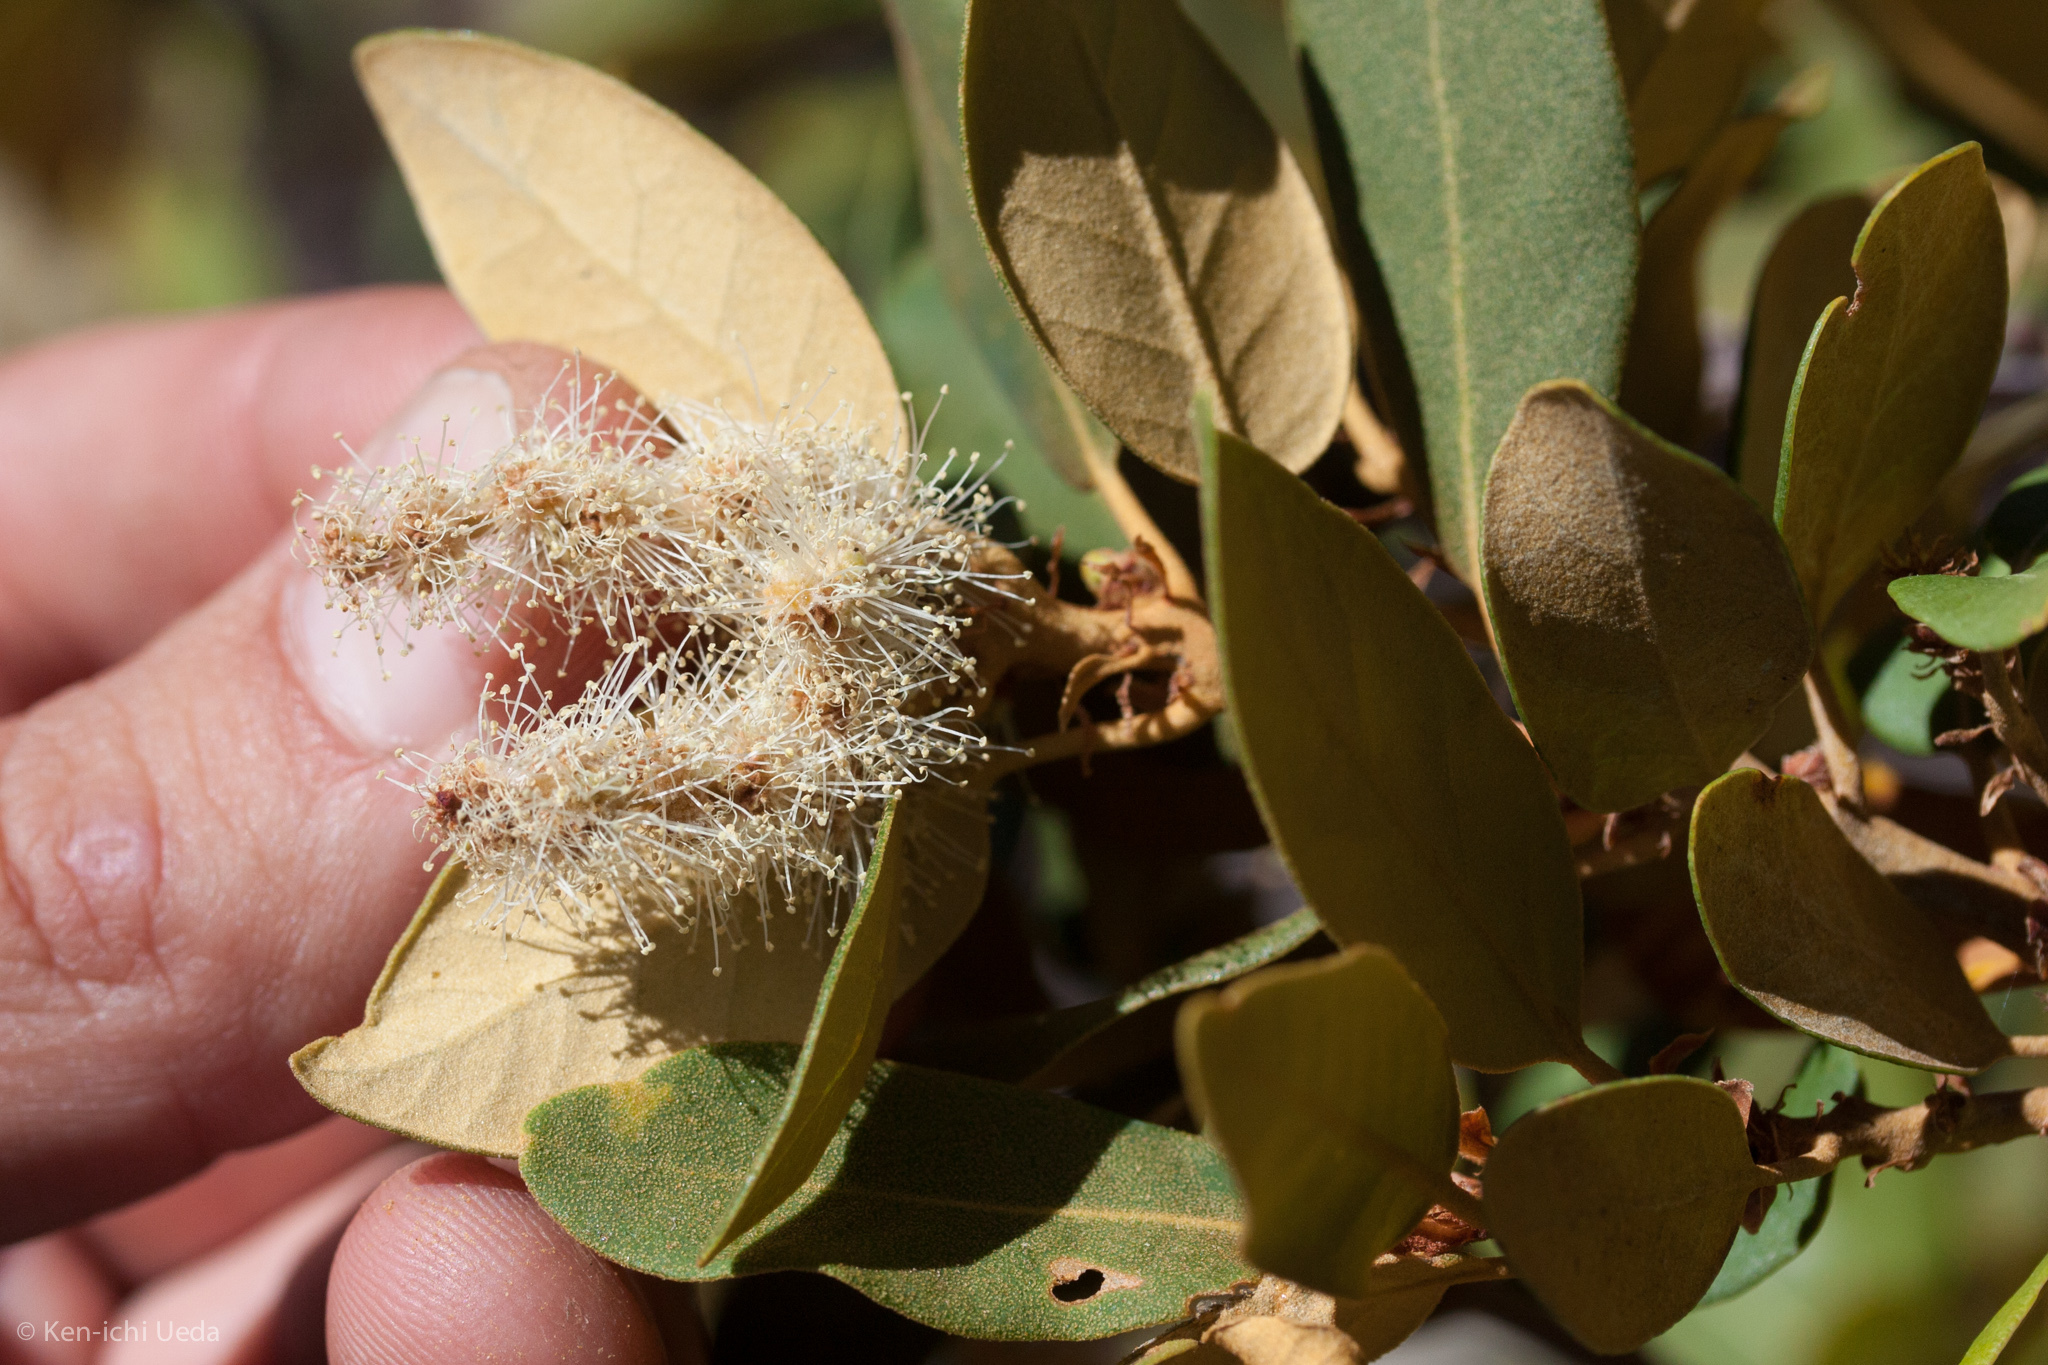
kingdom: Plantae
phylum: Tracheophyta
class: Magnoliopsida
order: Fagales
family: Fagaceae
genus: Chrysolepis
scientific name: Chrysolepis sempervirens
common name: Bush chinquapin
